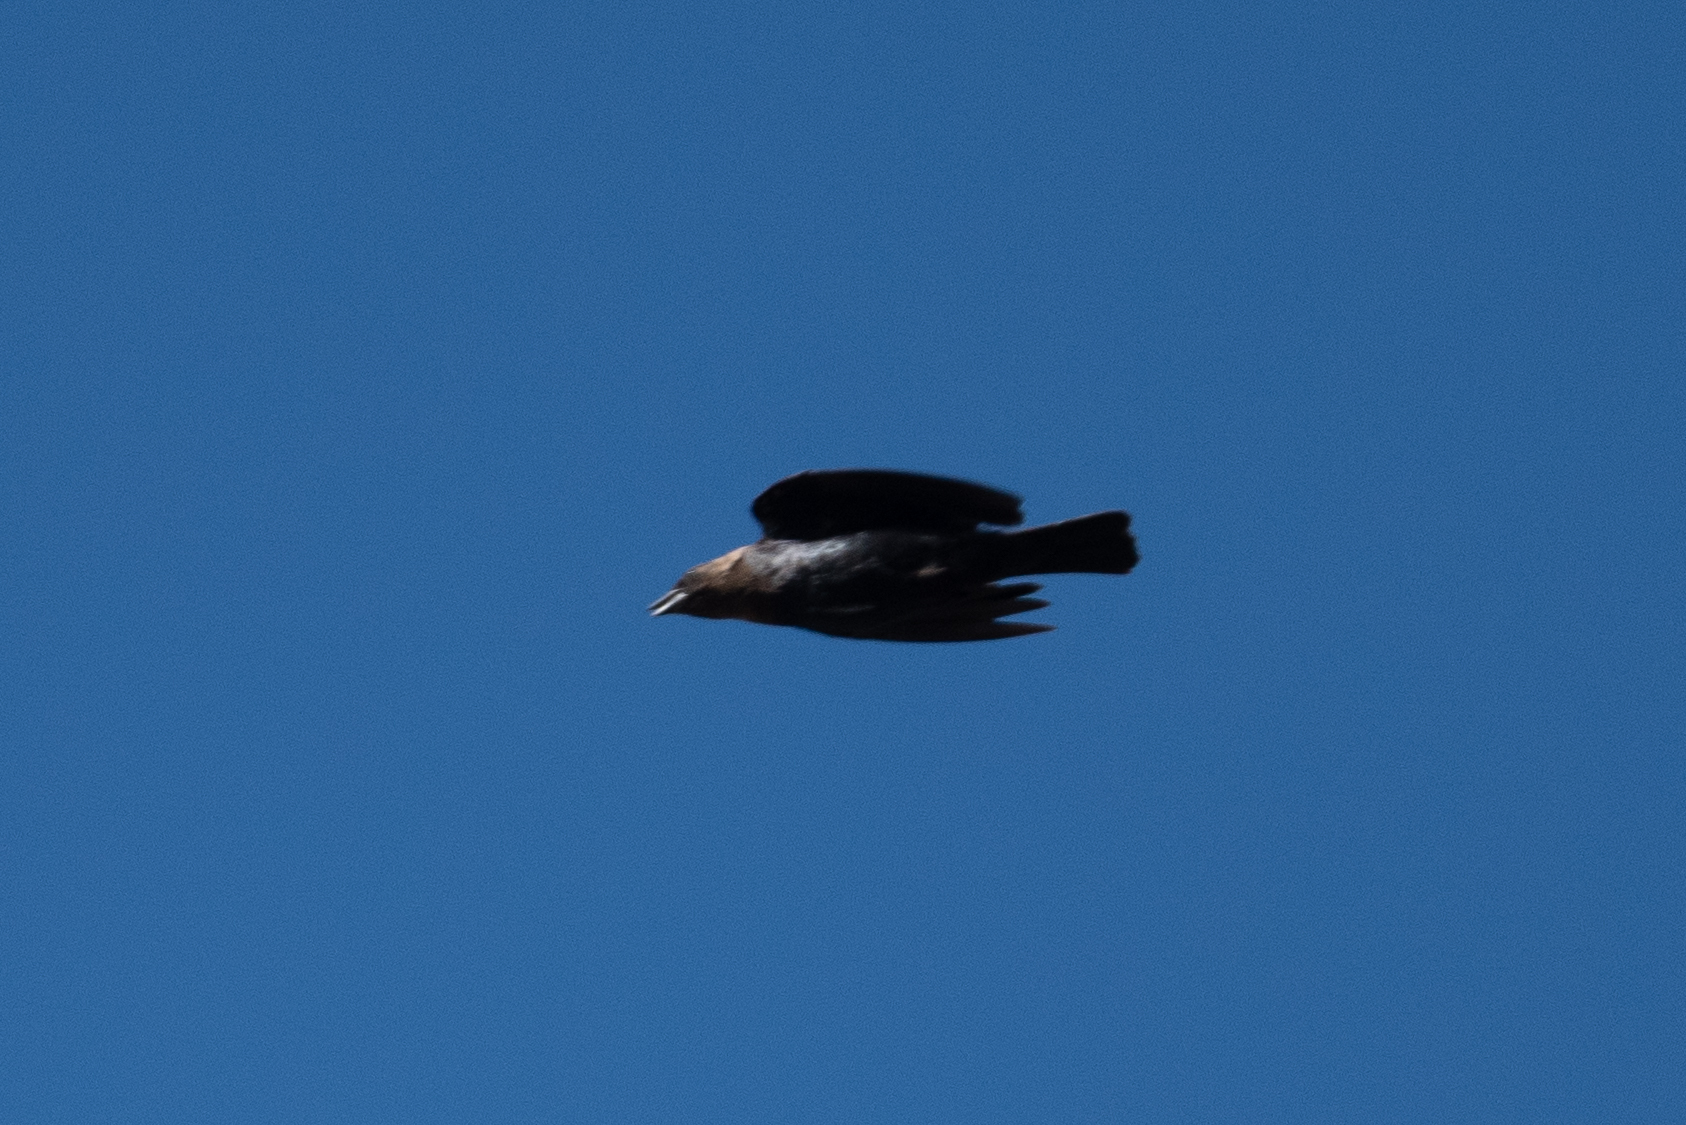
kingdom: Animalia
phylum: Chordata
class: Aves
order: Passeriformes
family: Icteridae
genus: Molothrus
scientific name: Molothrus ater
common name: Brown-headed cowbird
